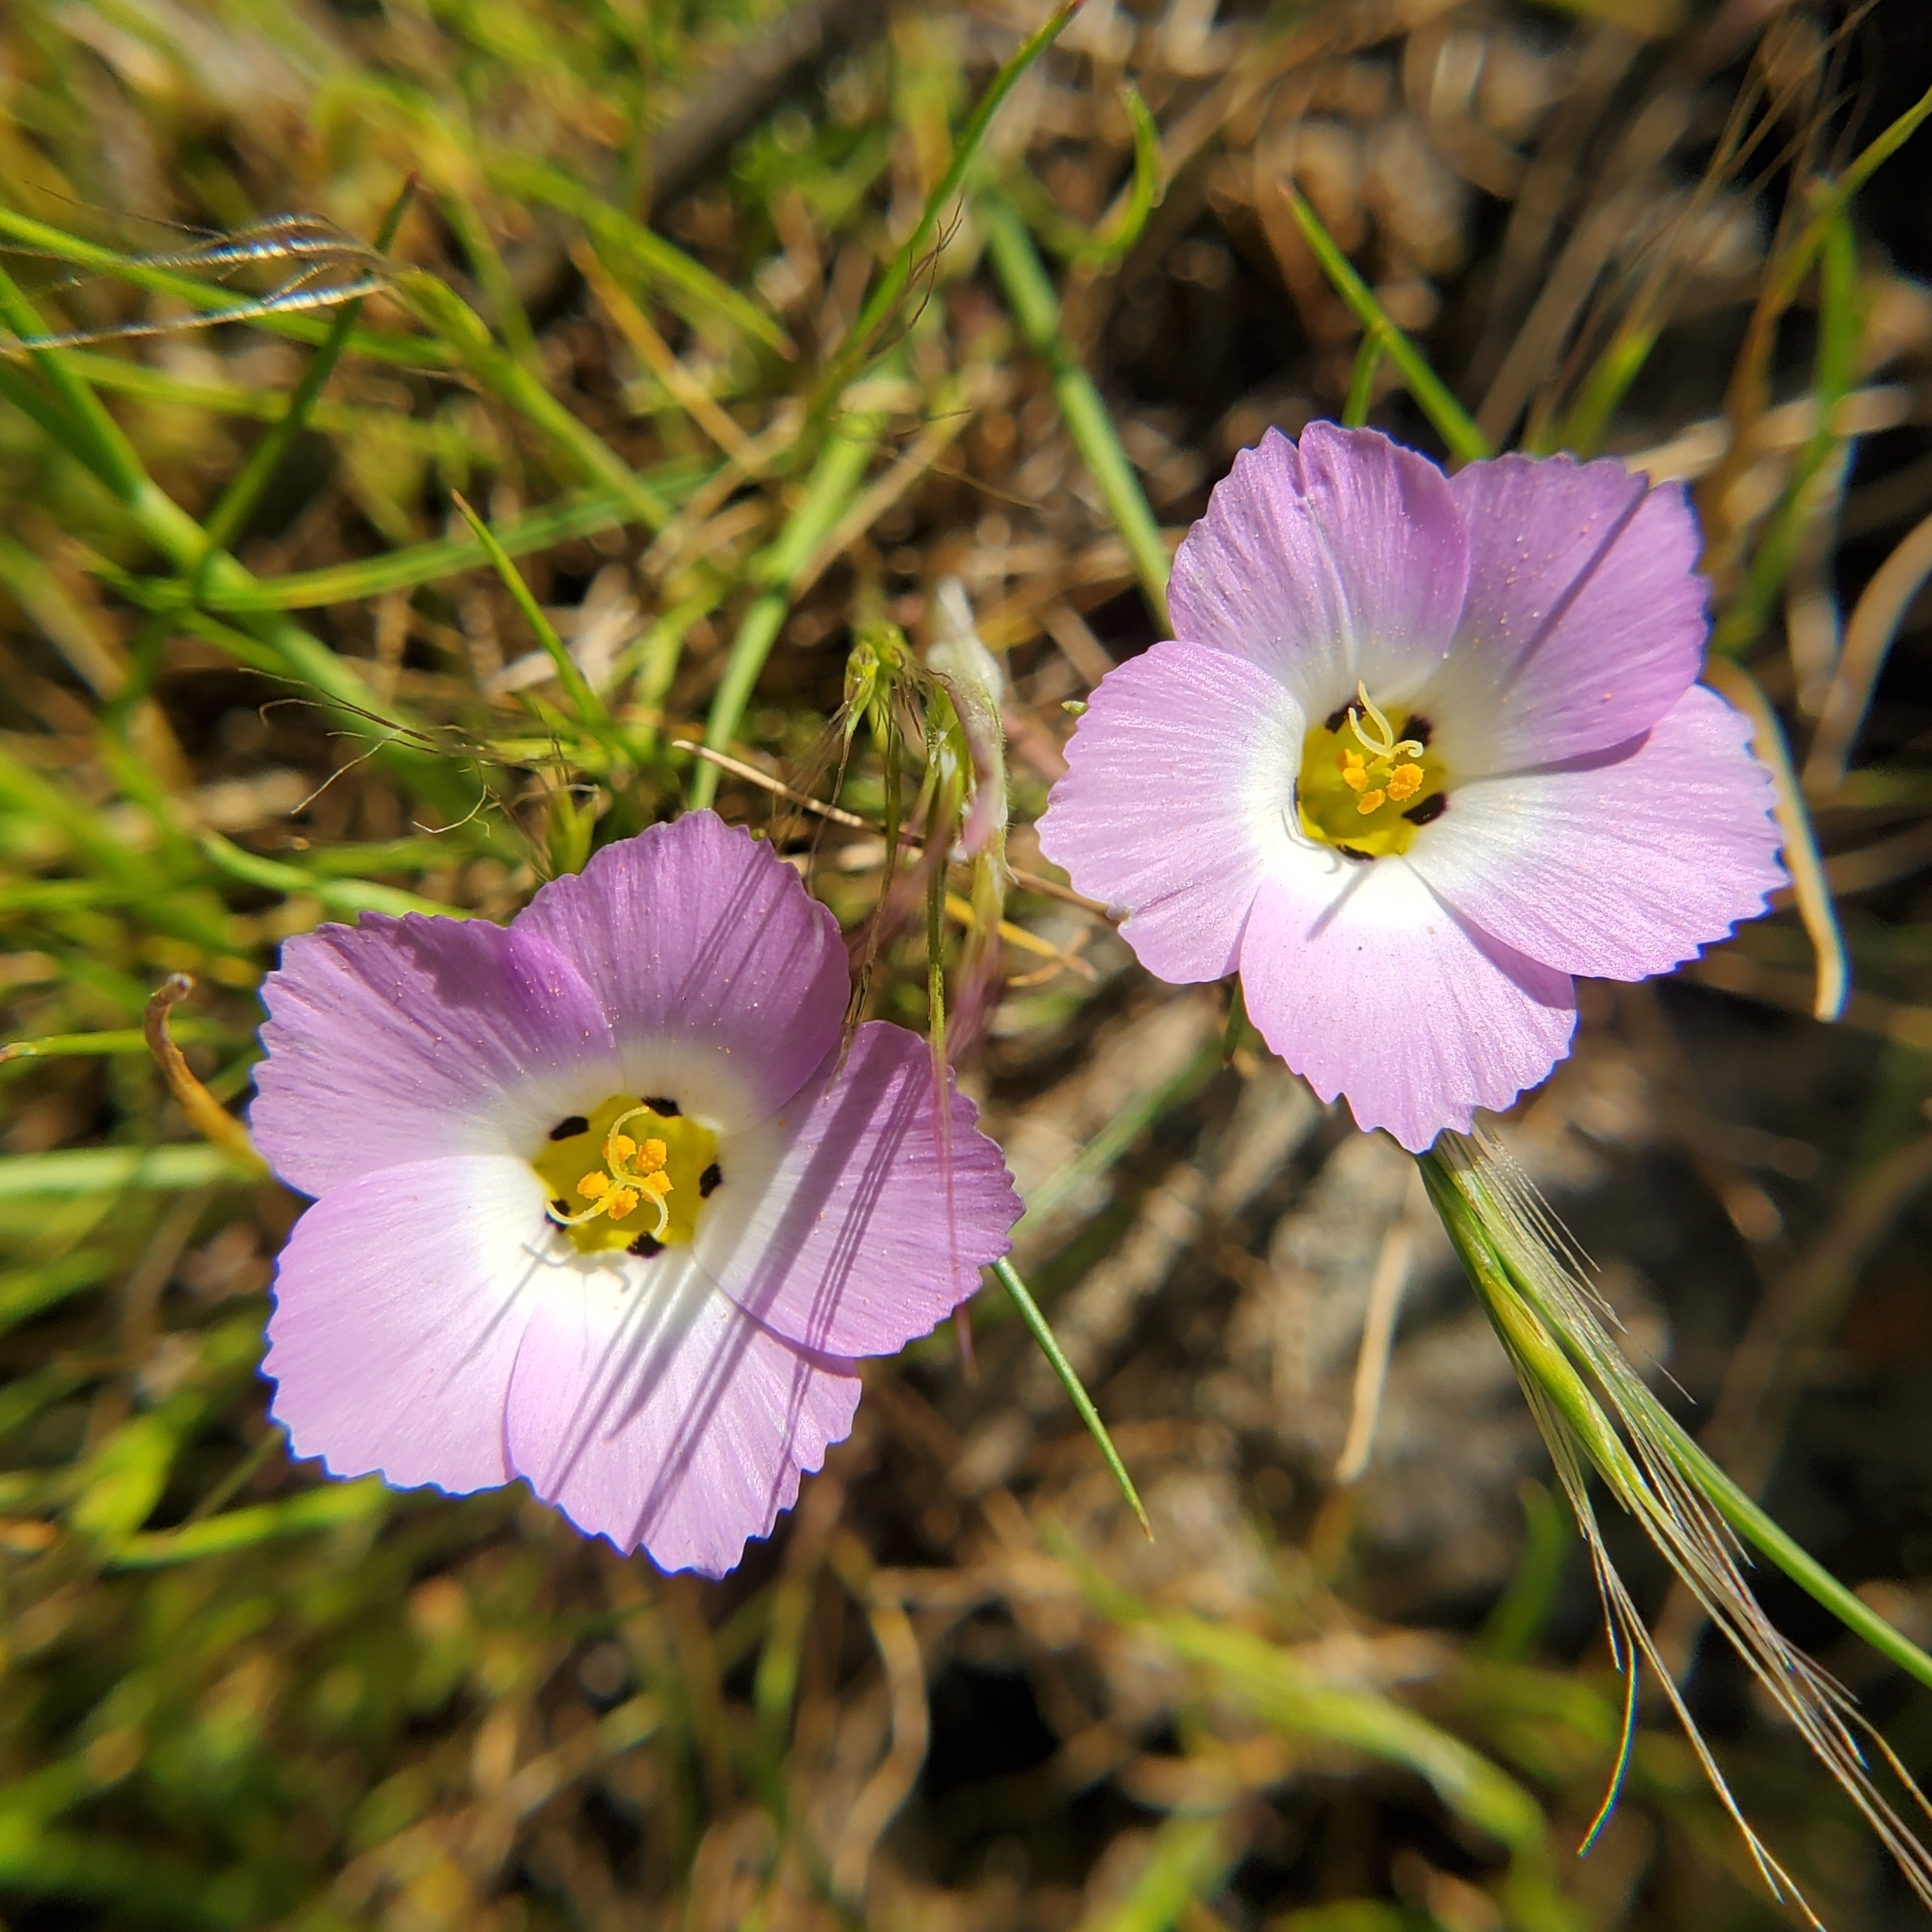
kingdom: Plantae
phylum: Tracheophyta
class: Magnoliopsida
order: Ericales
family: Polemoniaceae
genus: Linanthus
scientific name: Linanthus dianthiflorus
